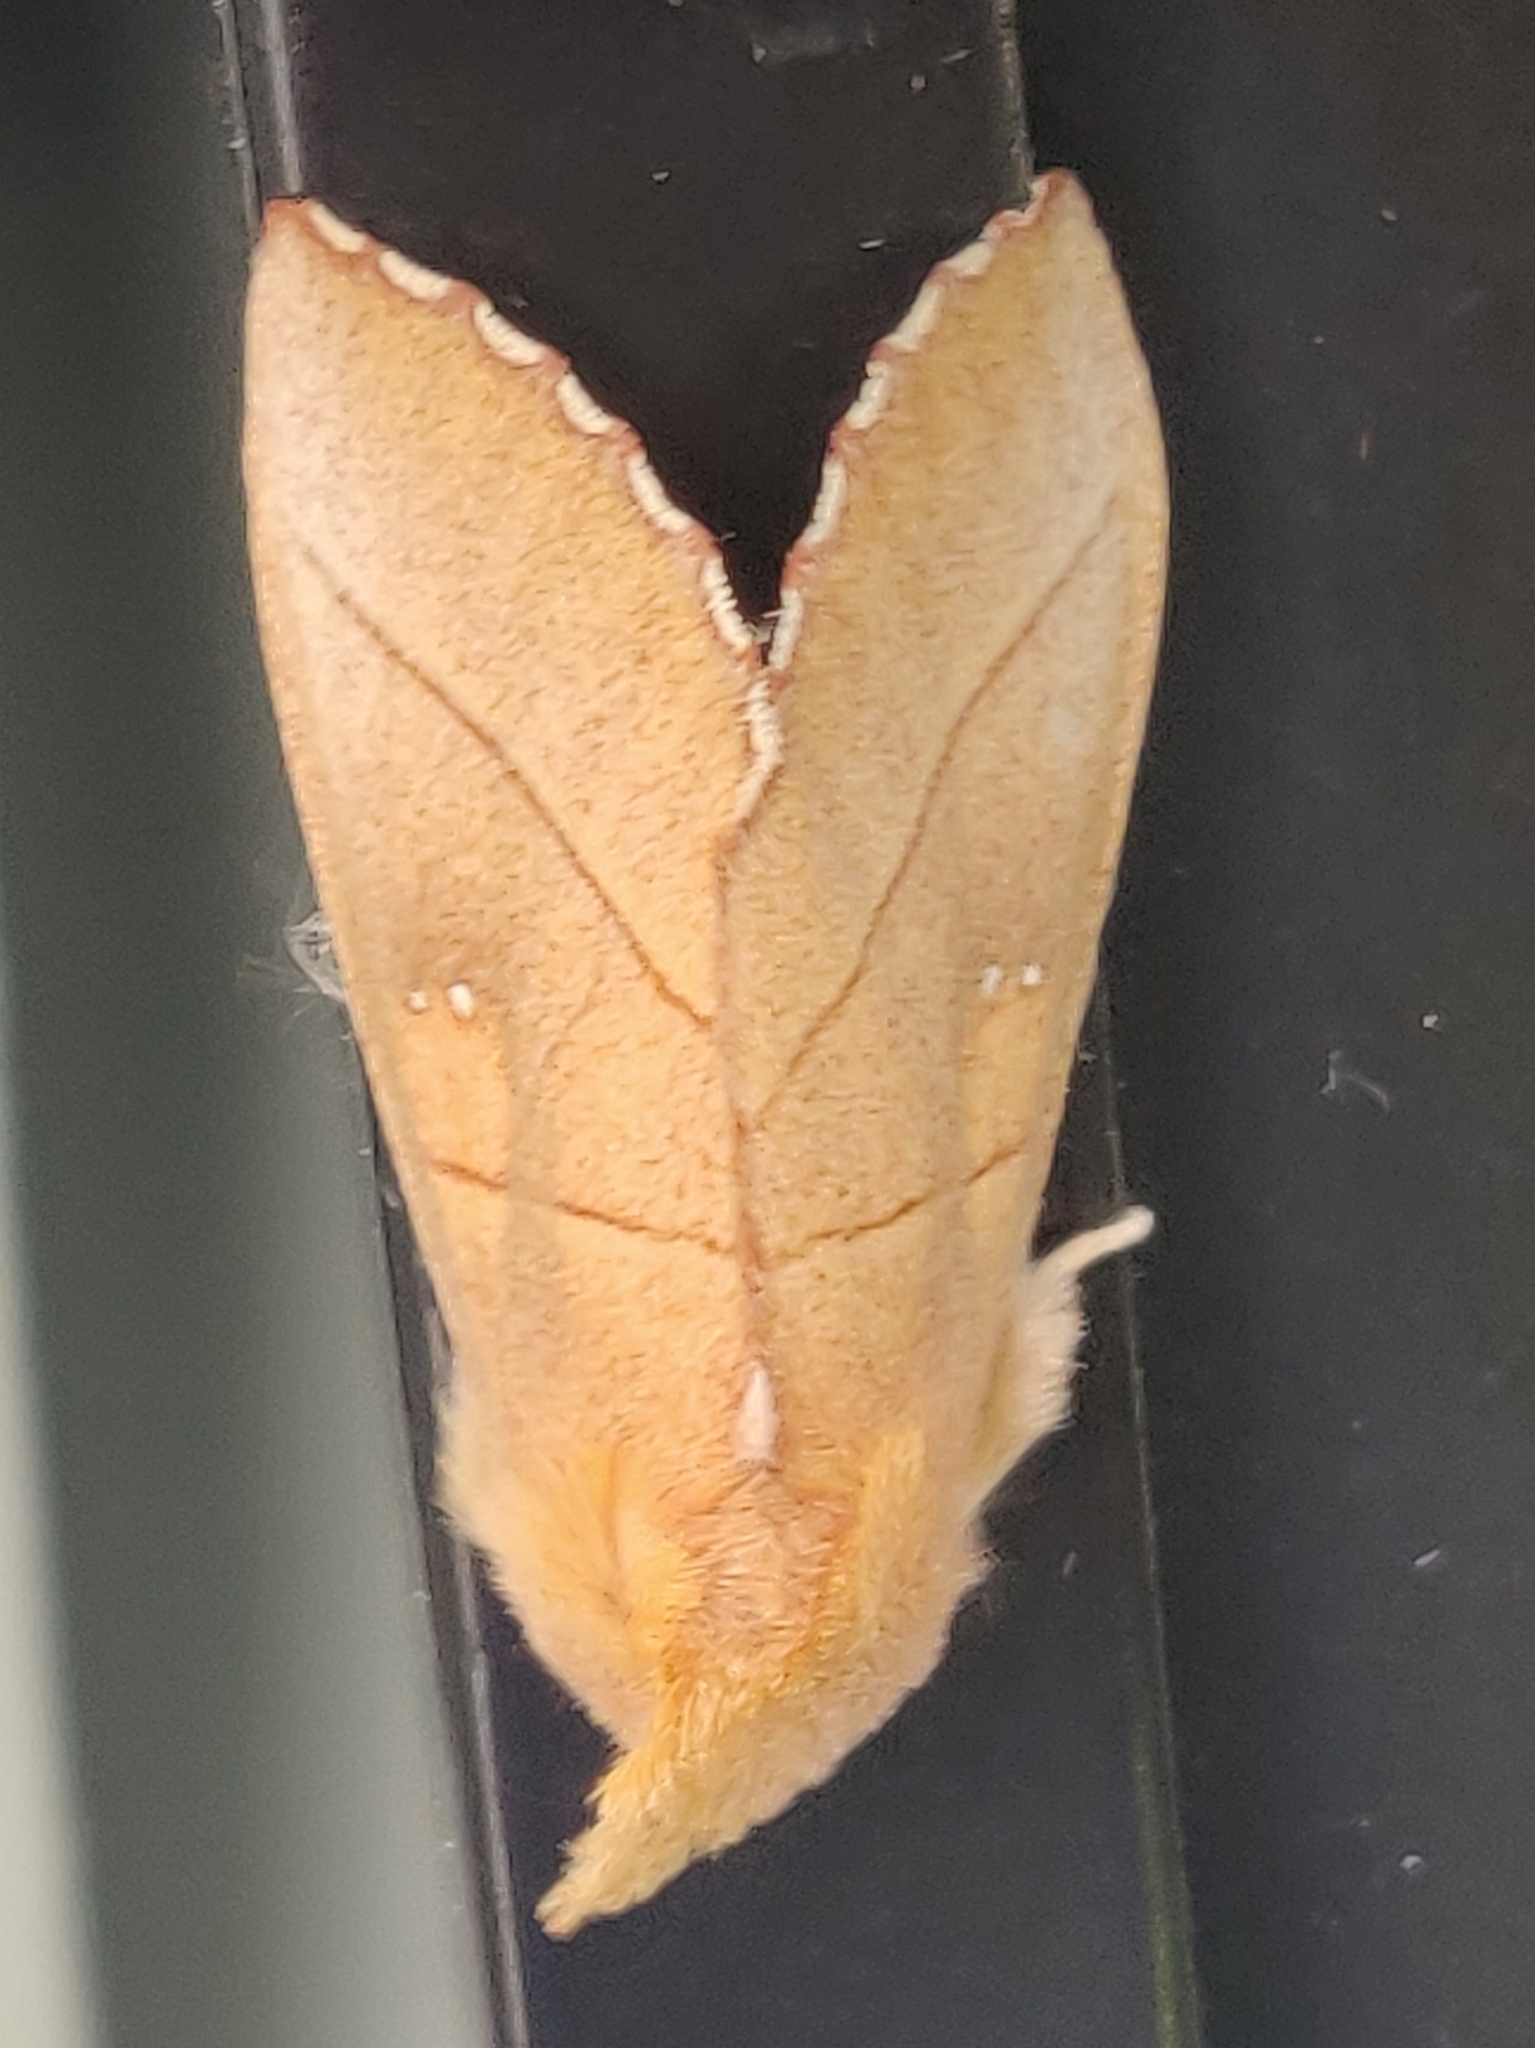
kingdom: Animalia
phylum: Arthropoda
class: Insecta
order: Lepidoptera
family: Notodontidae
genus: Nadata
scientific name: Nadata gibbosa
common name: White-dotted prominent
